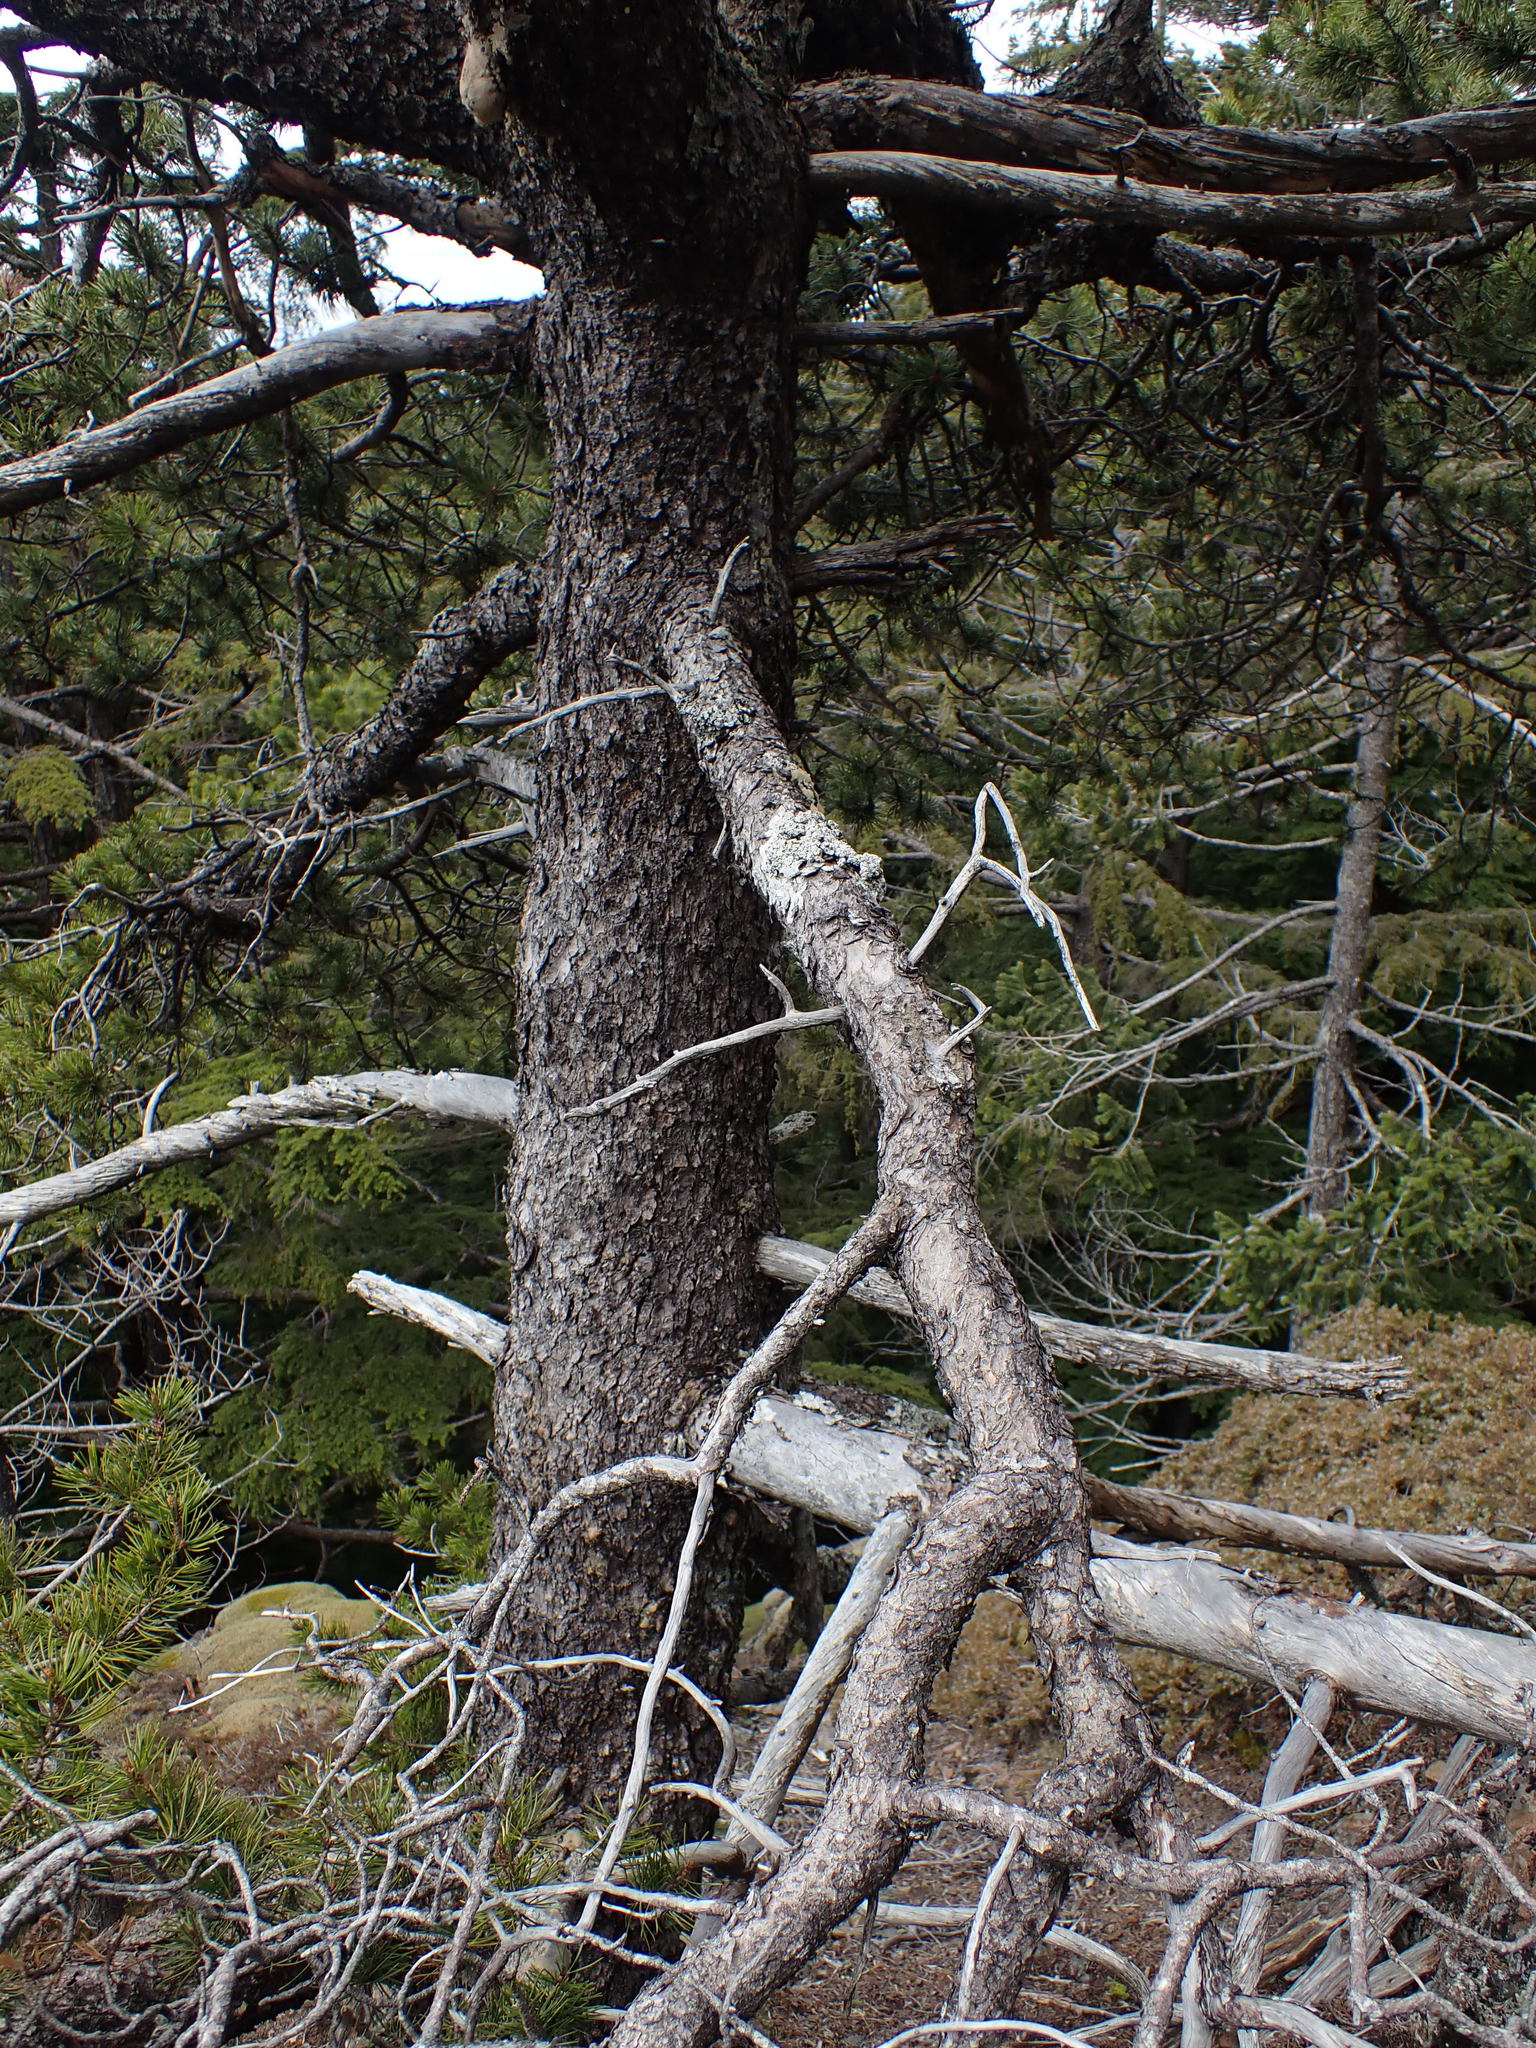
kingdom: Plantae
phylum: Tracheophyta
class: Pinopsida
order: Pinales
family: Pinaceae
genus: Pinus
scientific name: Pinus contorta
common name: Lodgepole pine
